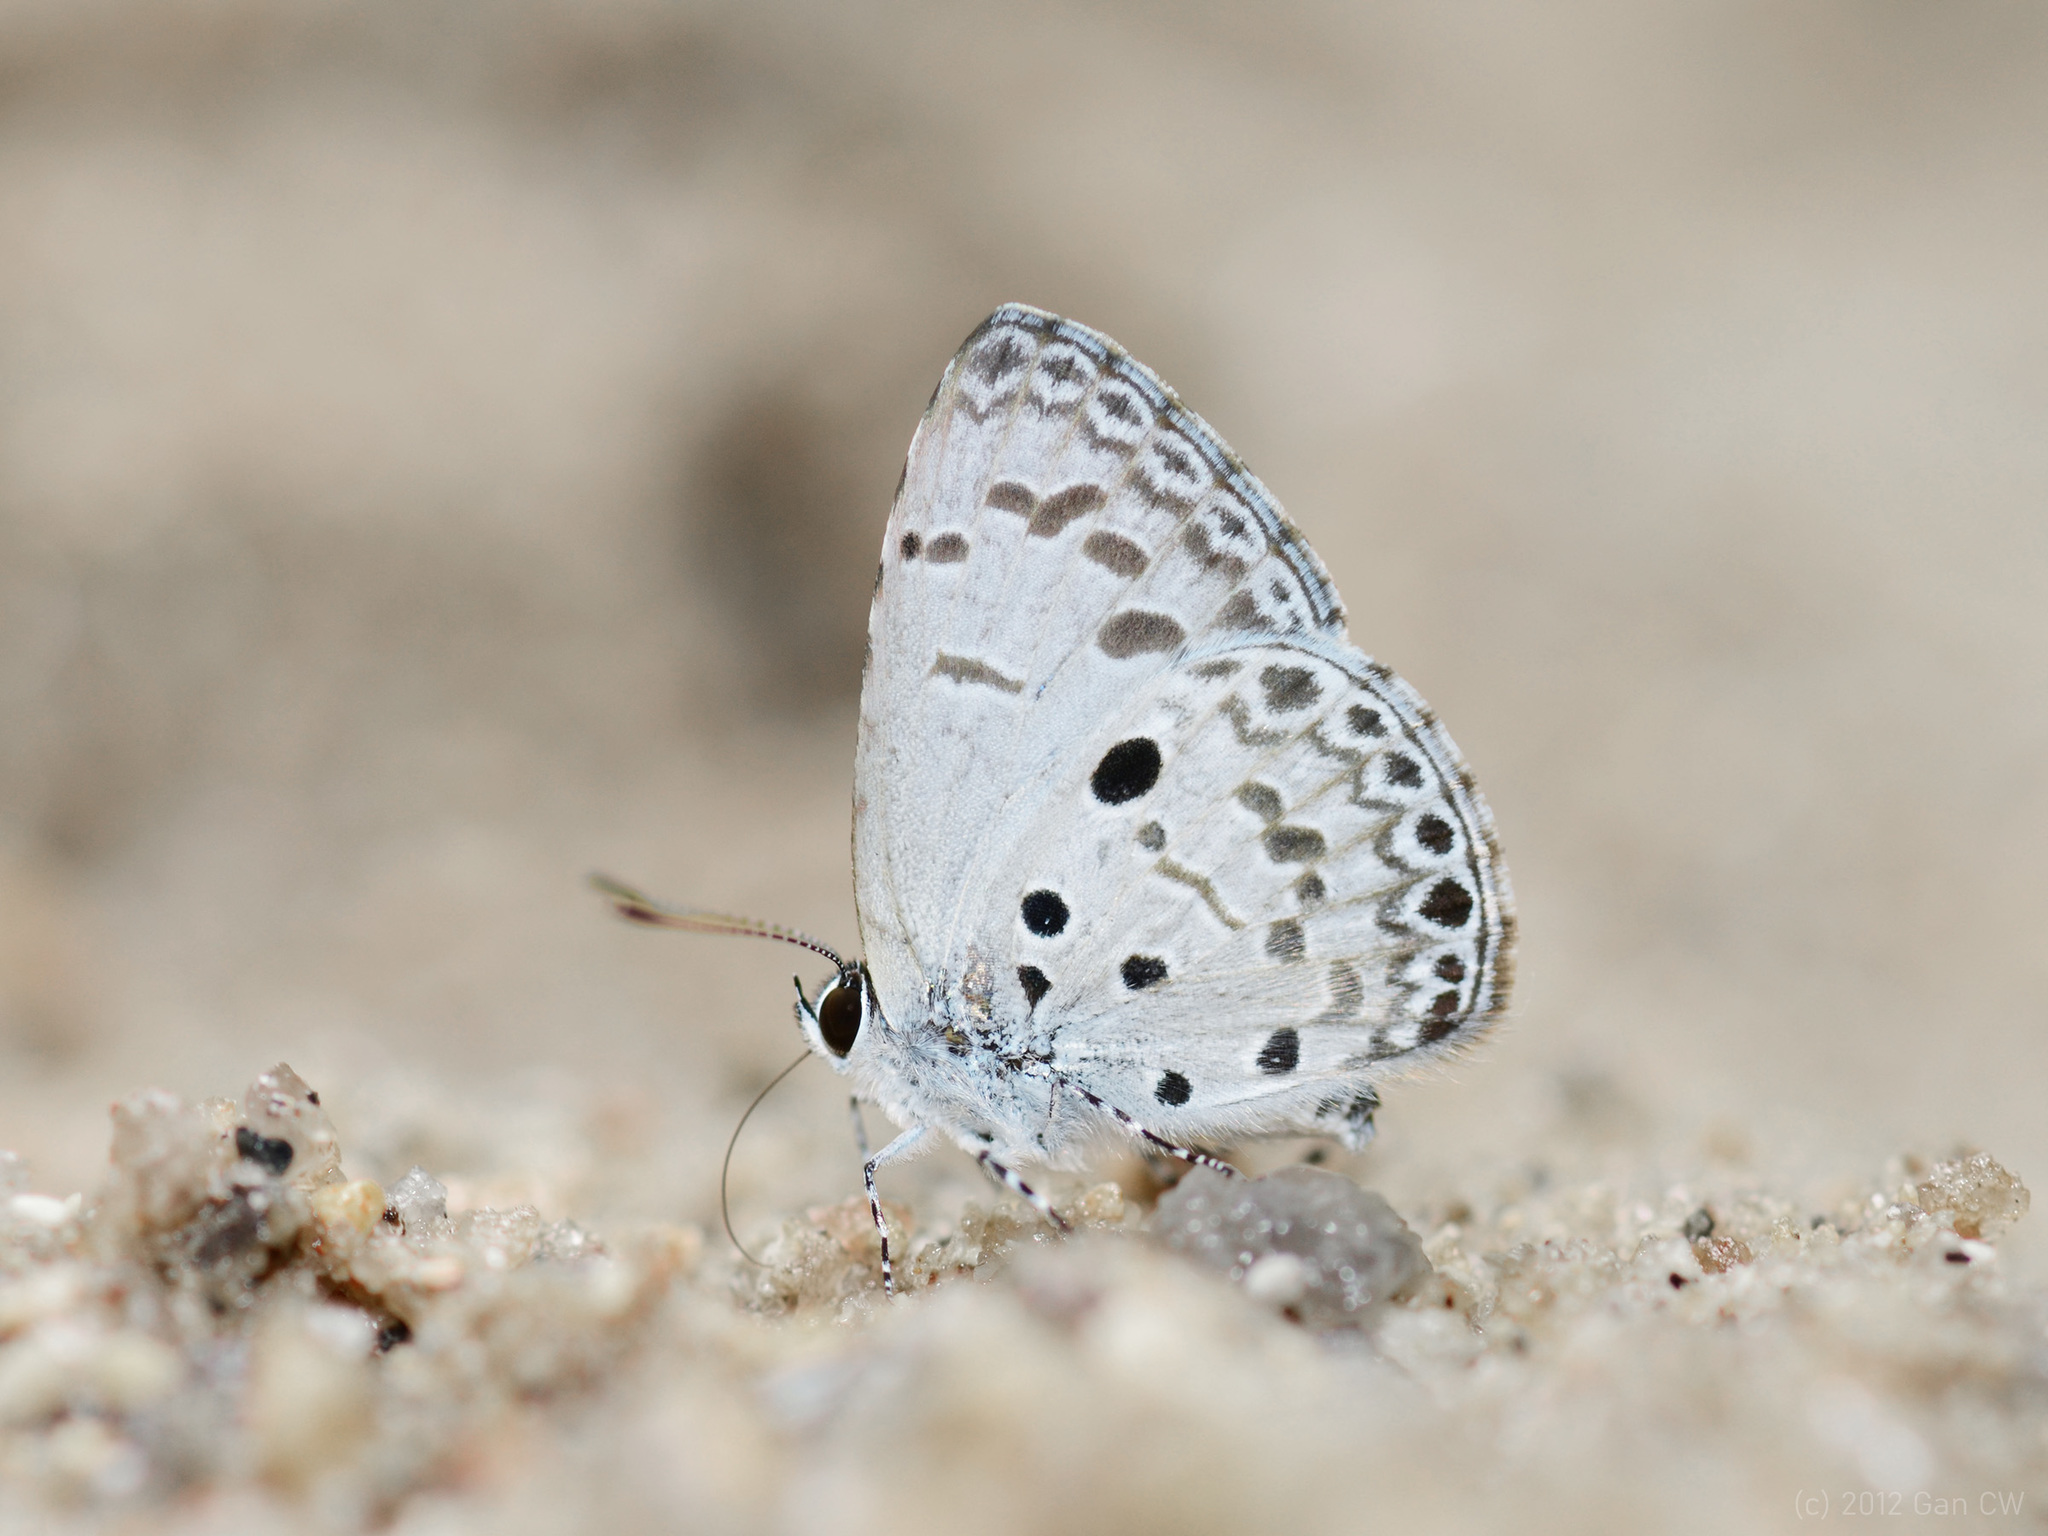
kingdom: Animalia
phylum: Arthropoda
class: Insecta
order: Lepidoptera
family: Lycaenidae
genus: Acytolepis
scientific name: Acytolepis puspa
